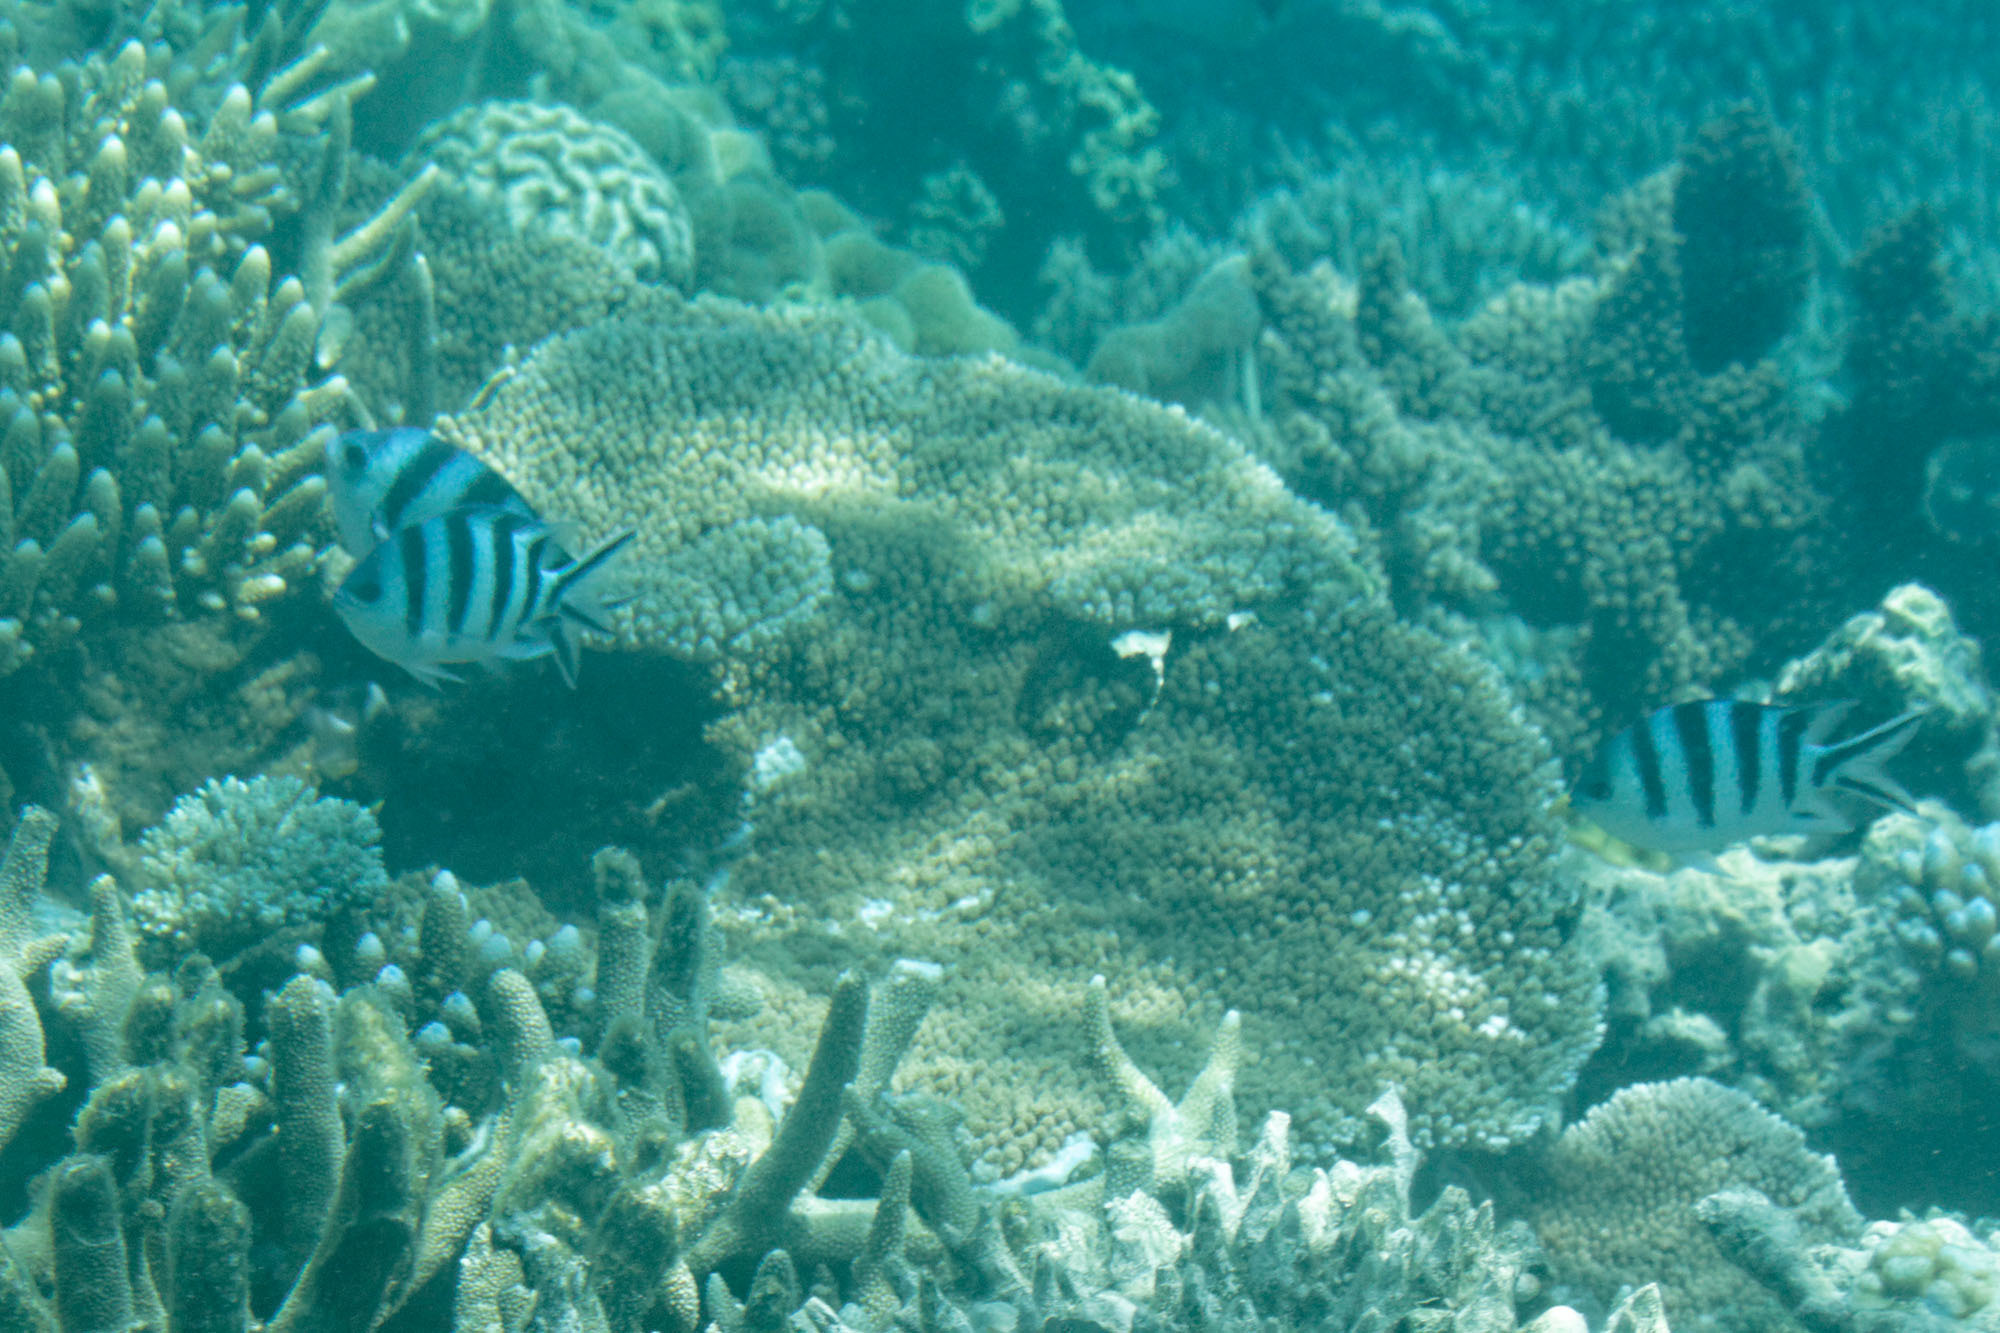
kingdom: Animalia
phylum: Chordata
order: Perciformes
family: Pomacentridae
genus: Abudefduf
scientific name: Abudefduf sexfasciatus
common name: Scissortail sergeant
